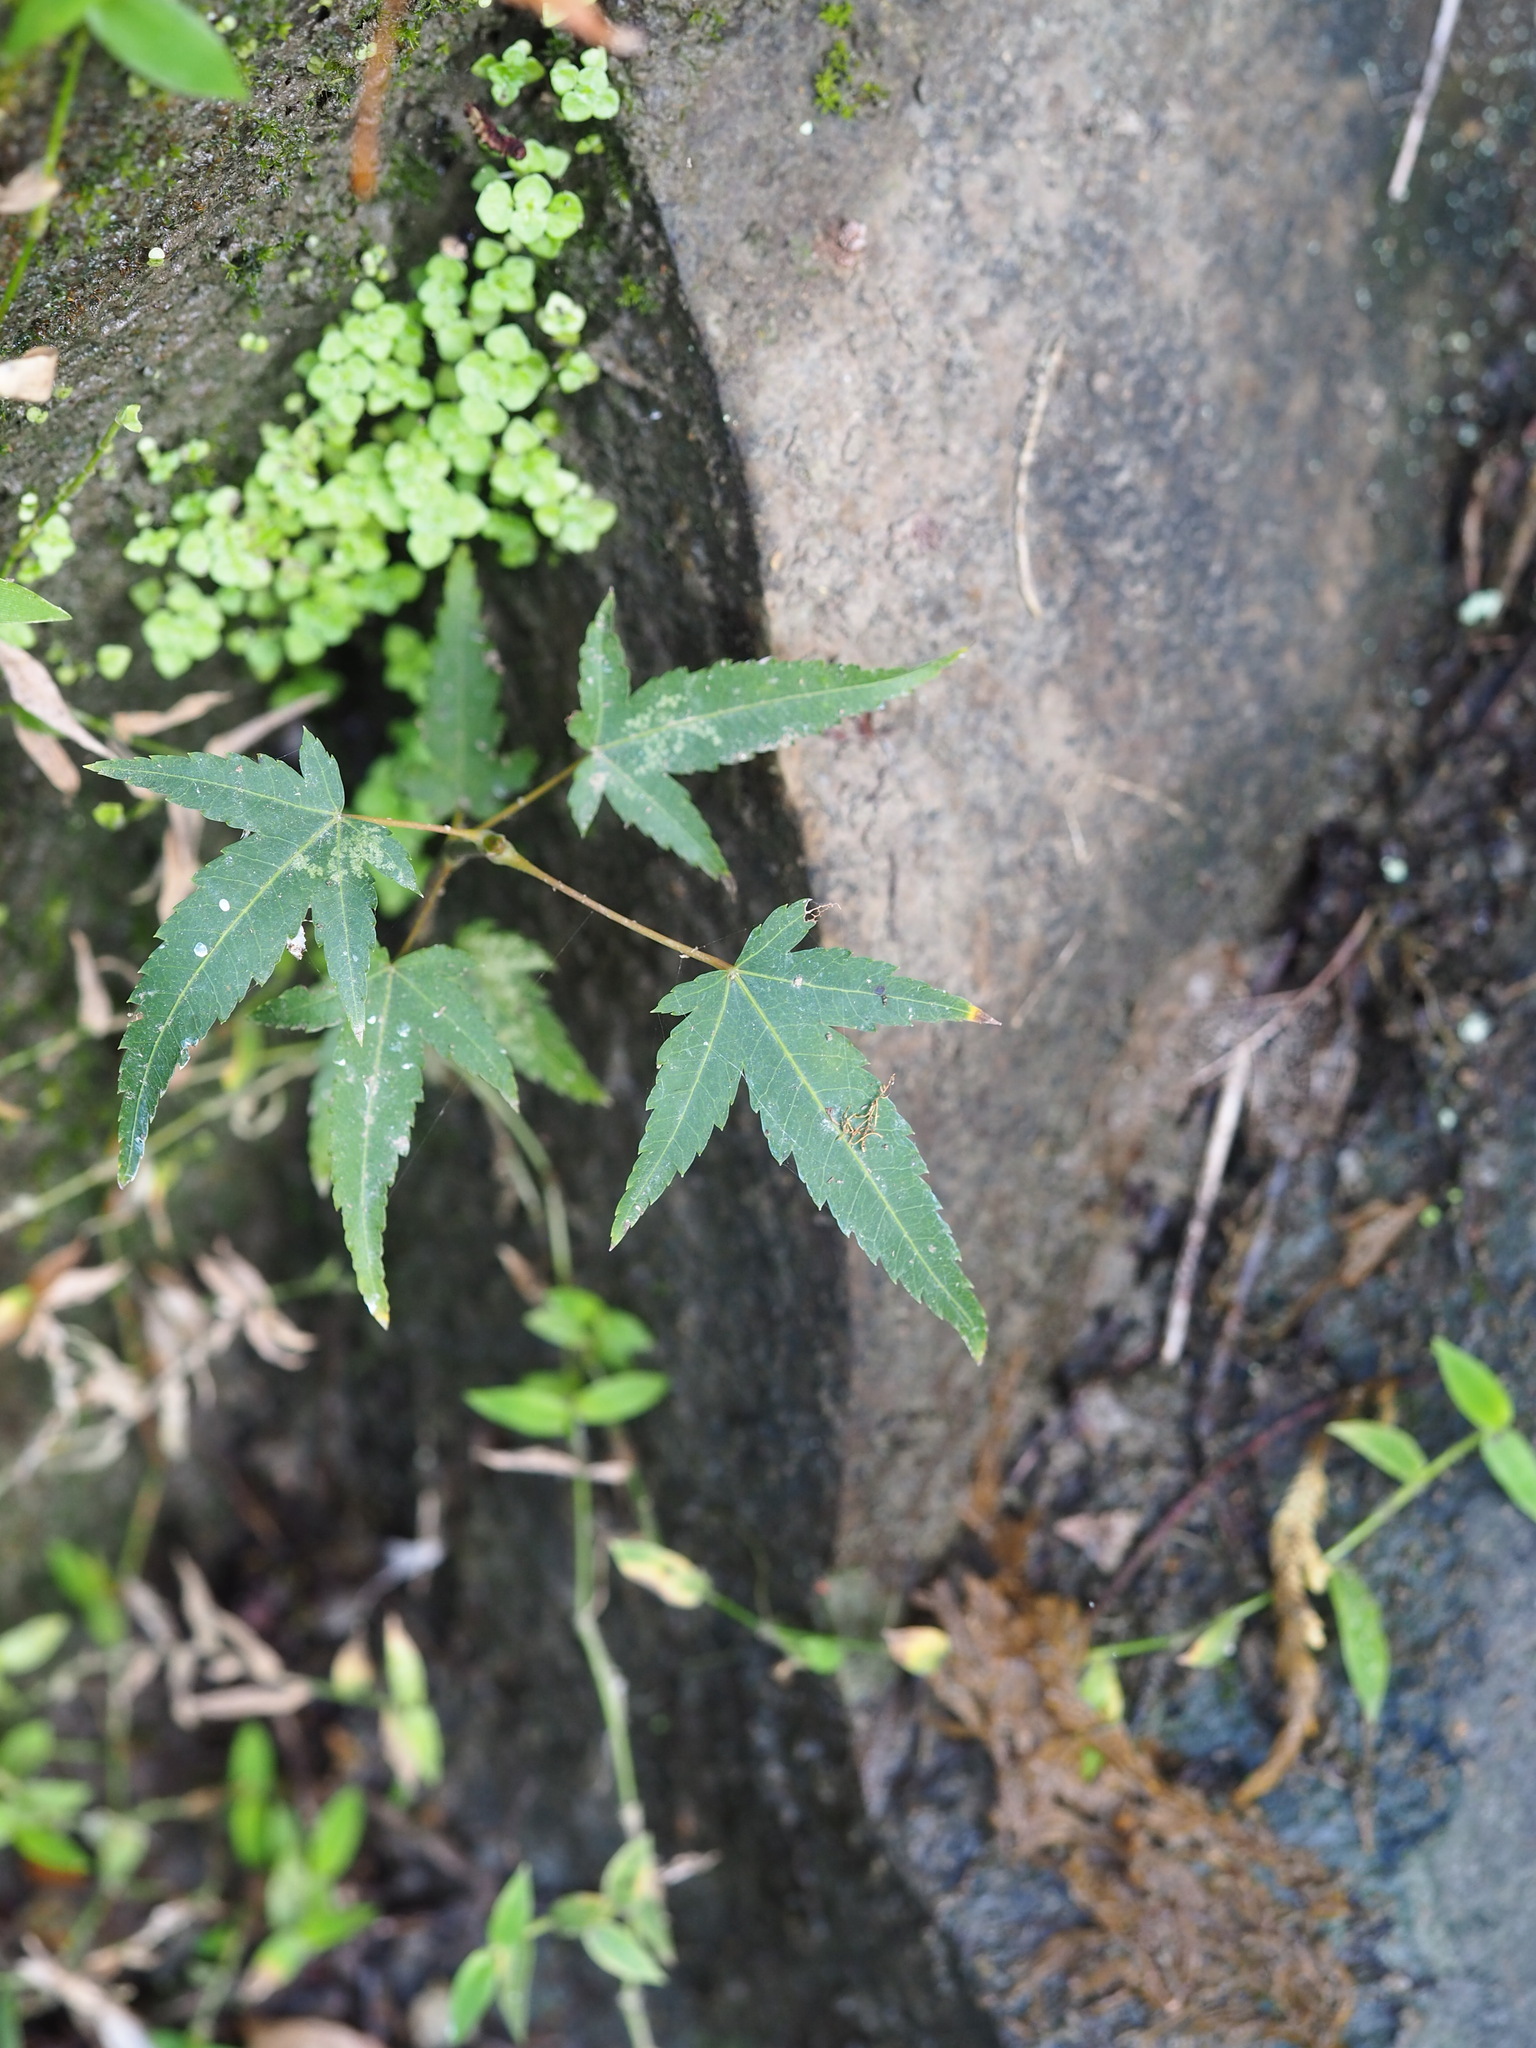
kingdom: Plantae
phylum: Tracheophyta
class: Magnoliopsida
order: Sapindales
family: Sapindaceae
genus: Acer
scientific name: Acer serrulatum
